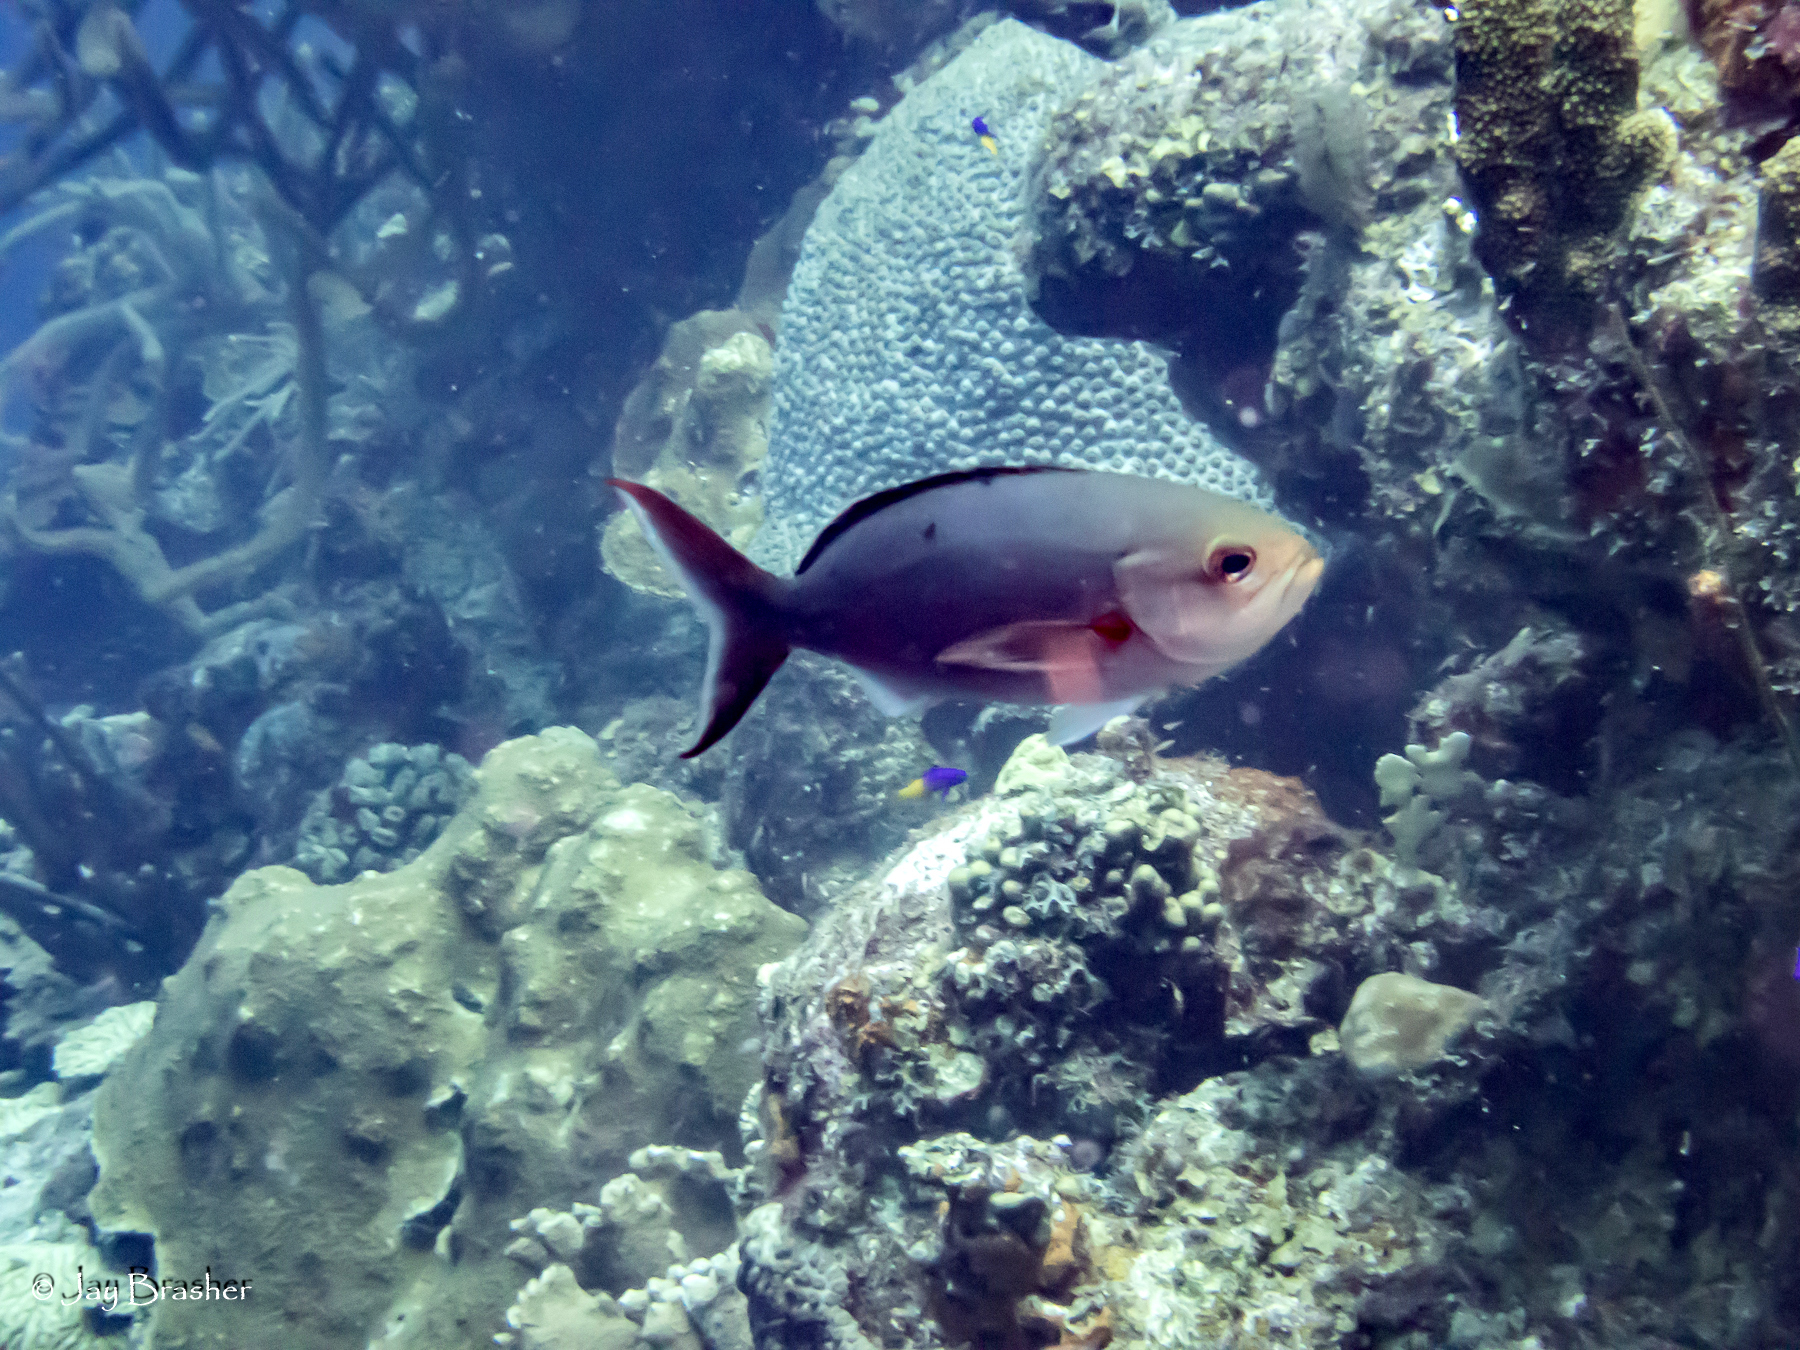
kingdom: Animalia
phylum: Chordata
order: Perciformes
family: Serranidae
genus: Paranthias
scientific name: Paranthias furcifer
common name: Creole-fish
